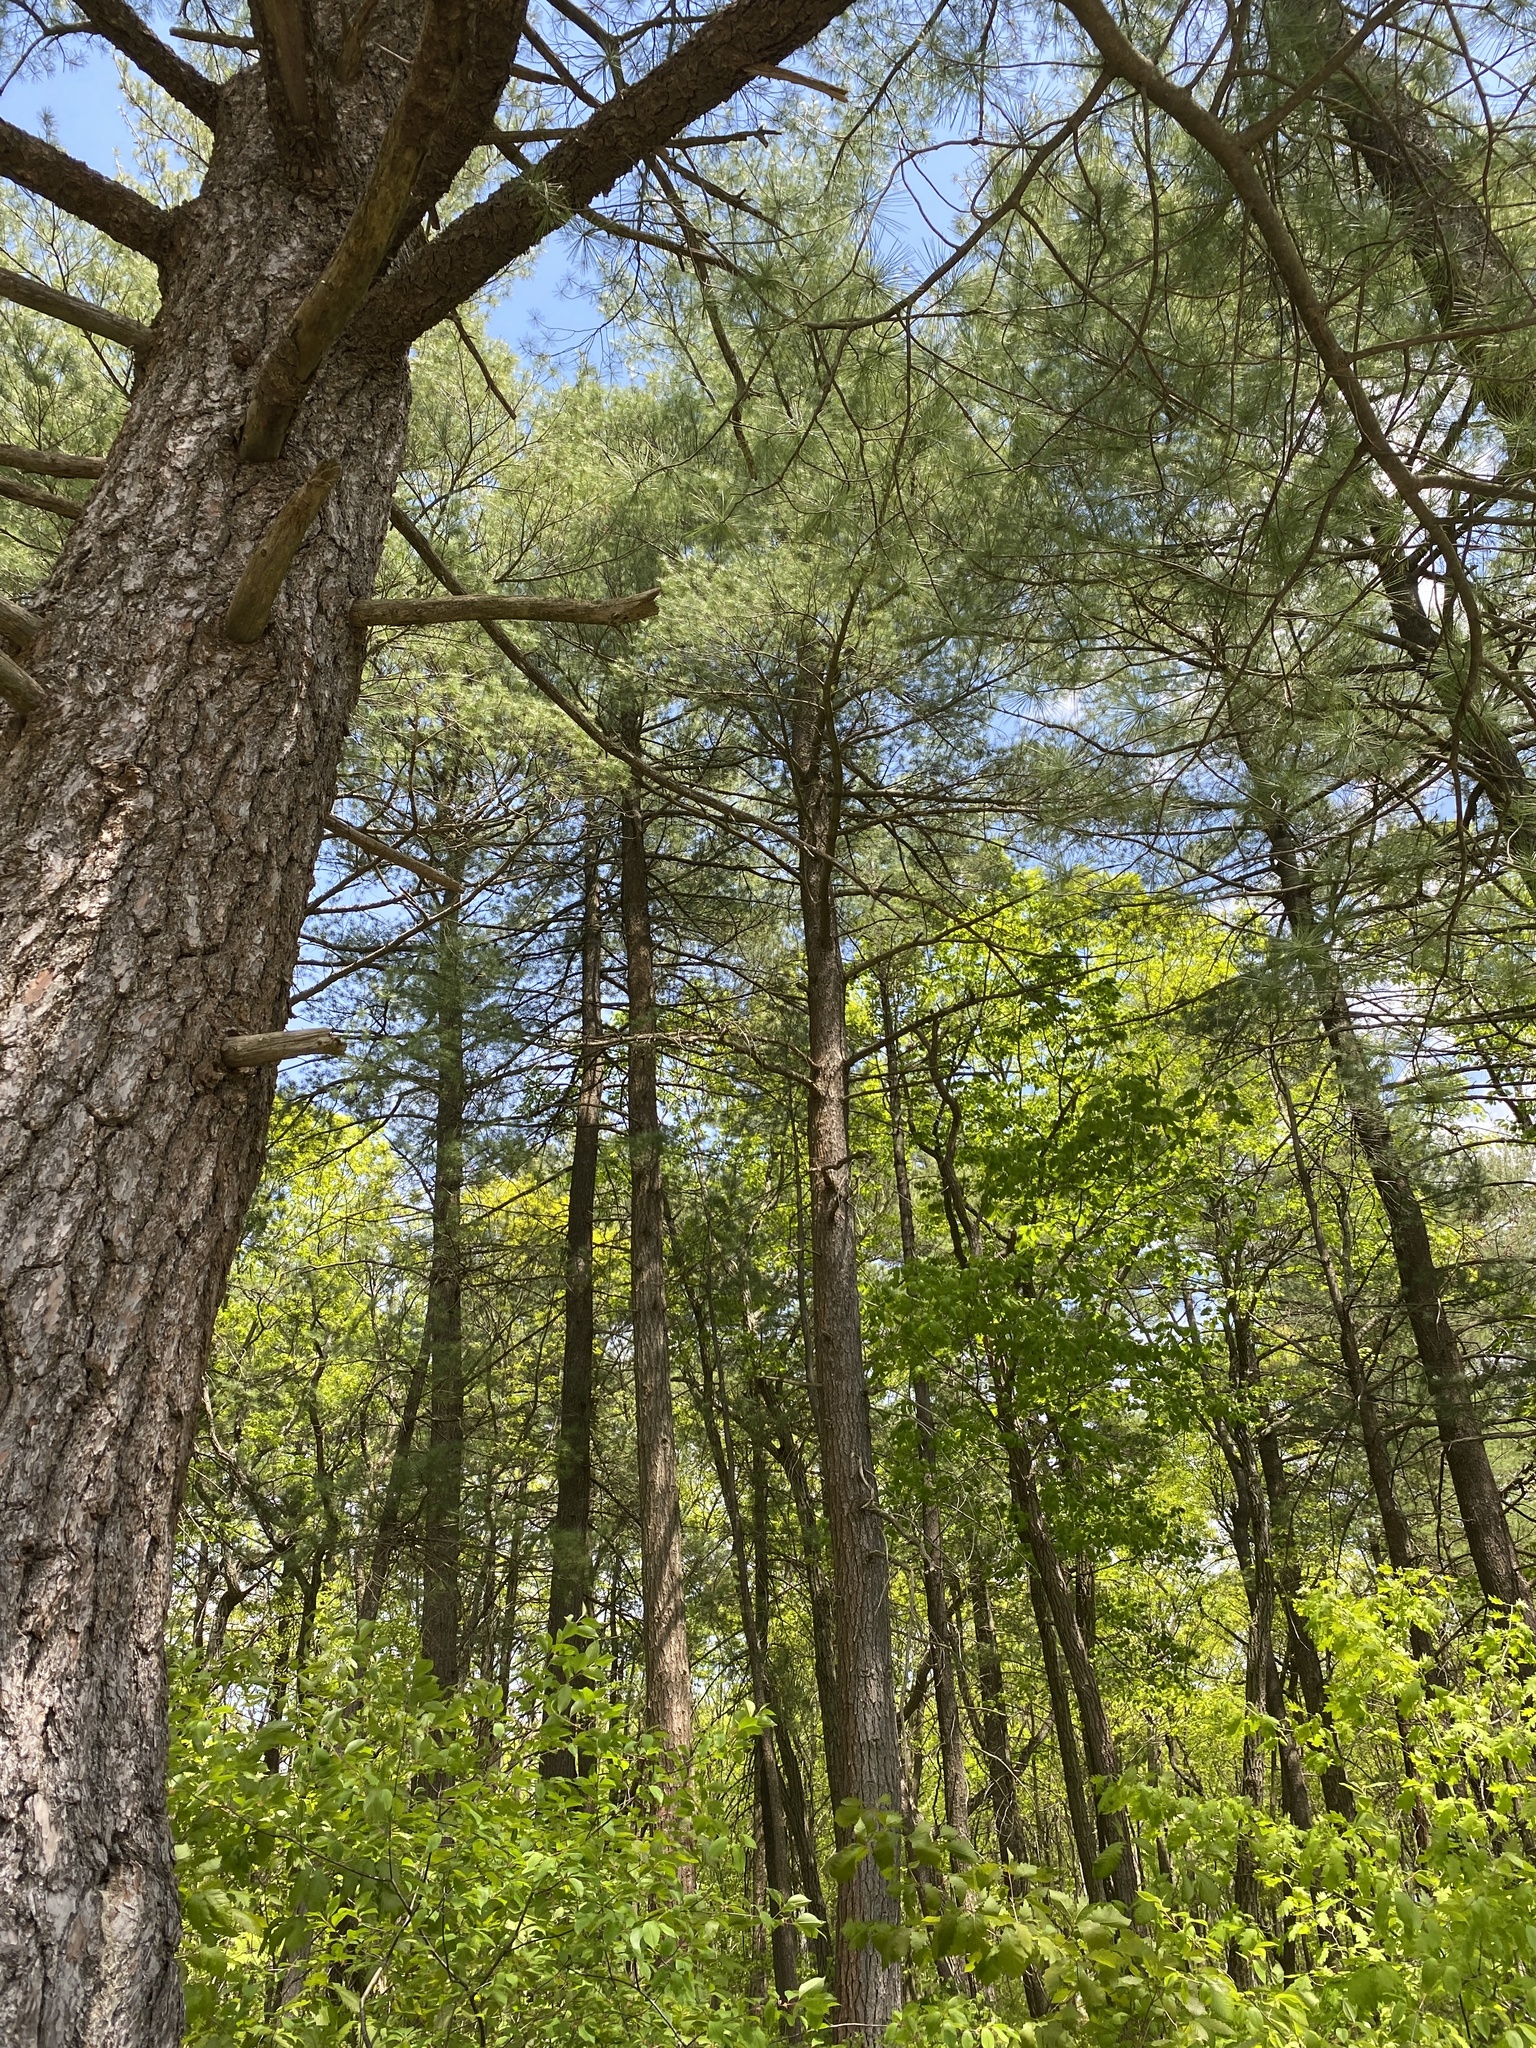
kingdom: Plantae
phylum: Tracheophyta
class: Pinopsida
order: Pinales
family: Pinaceae
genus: Pinus
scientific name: Pinus strobus
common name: Weymouth pine
